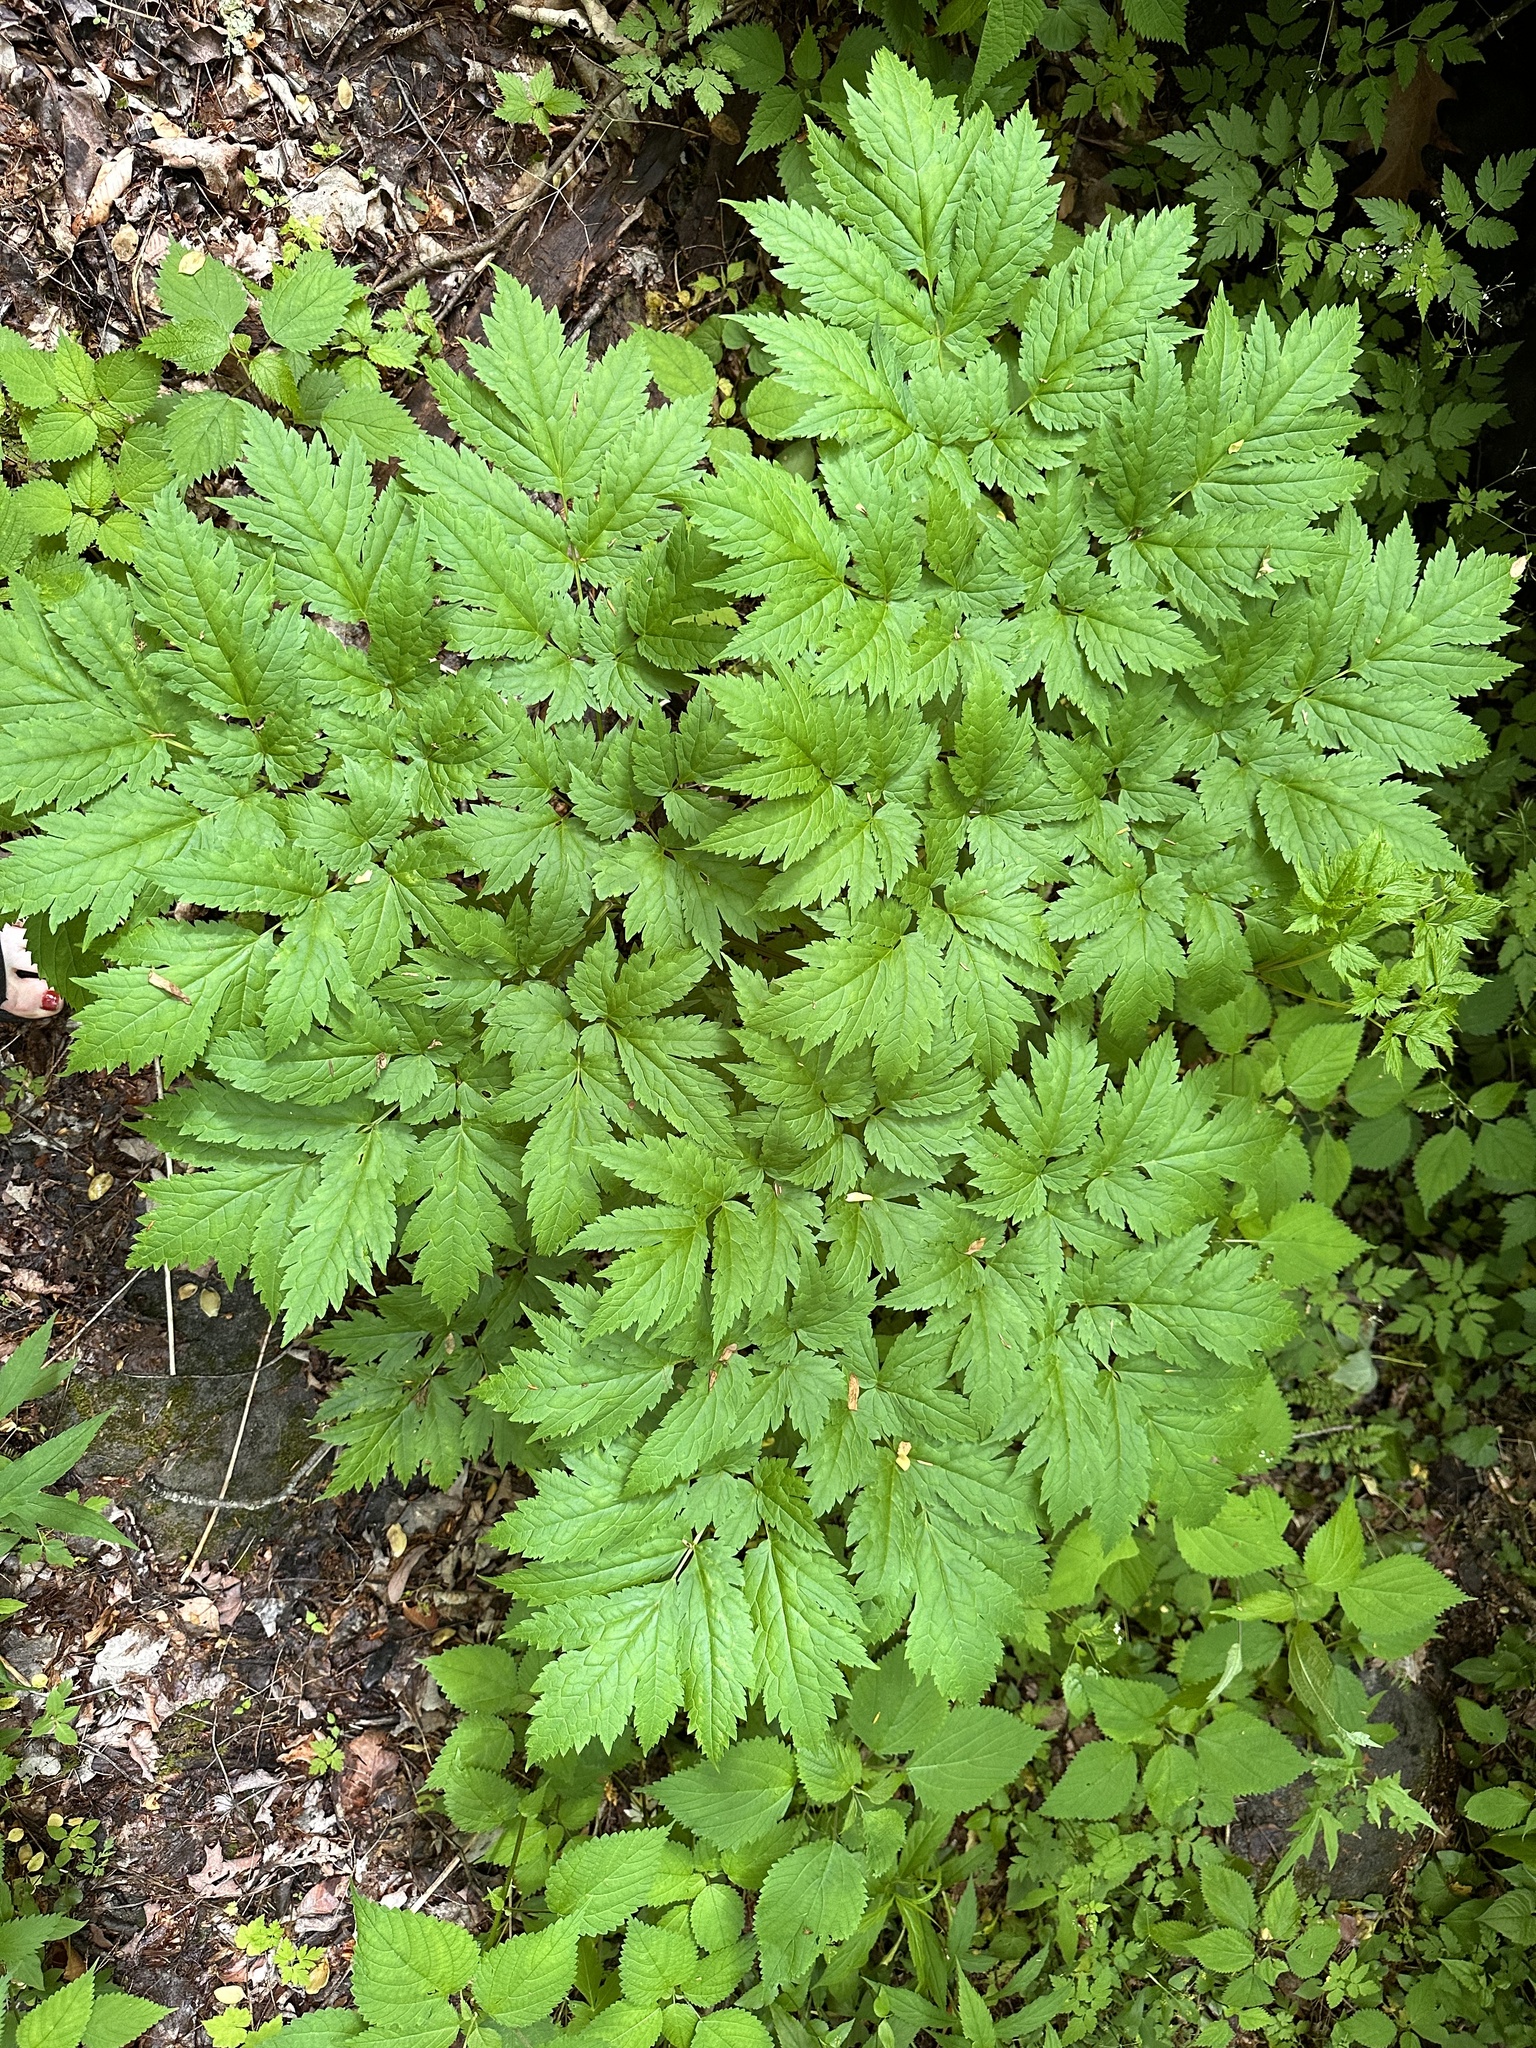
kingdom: Plantae
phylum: Tracheophyta
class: Magnoliopsida
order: Ranunculales
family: Ranunculaceae
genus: Actaea
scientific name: Actaea racemosa
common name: Black cohosh
